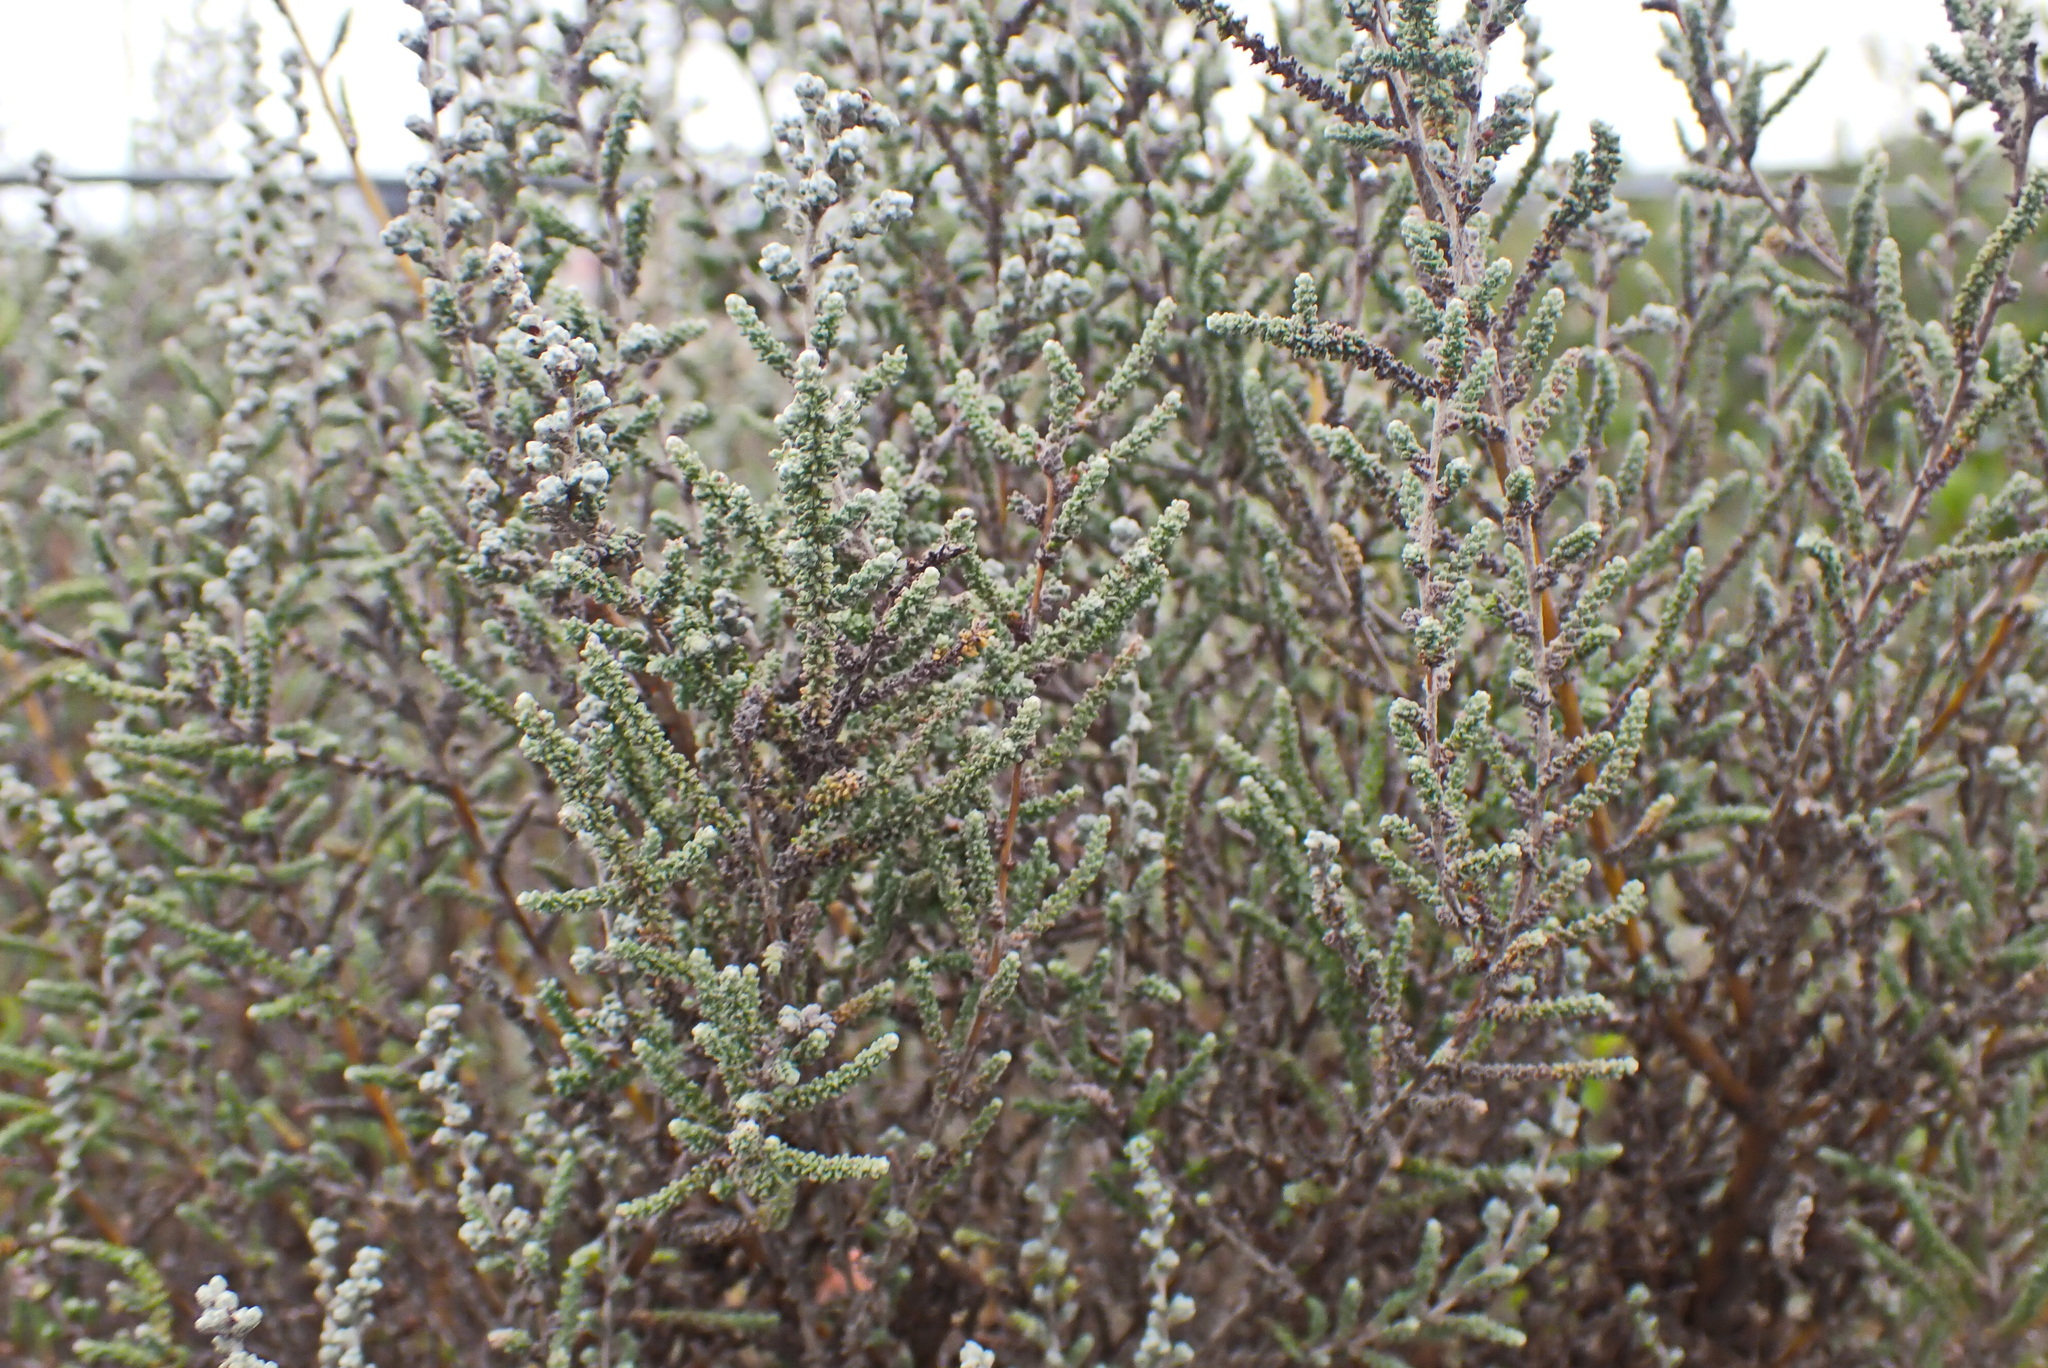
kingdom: Plantae
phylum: Tracheophyta
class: Magnoliopsida
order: Asterales
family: Asteraceae
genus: Seriphium
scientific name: Seriphium plumosum
